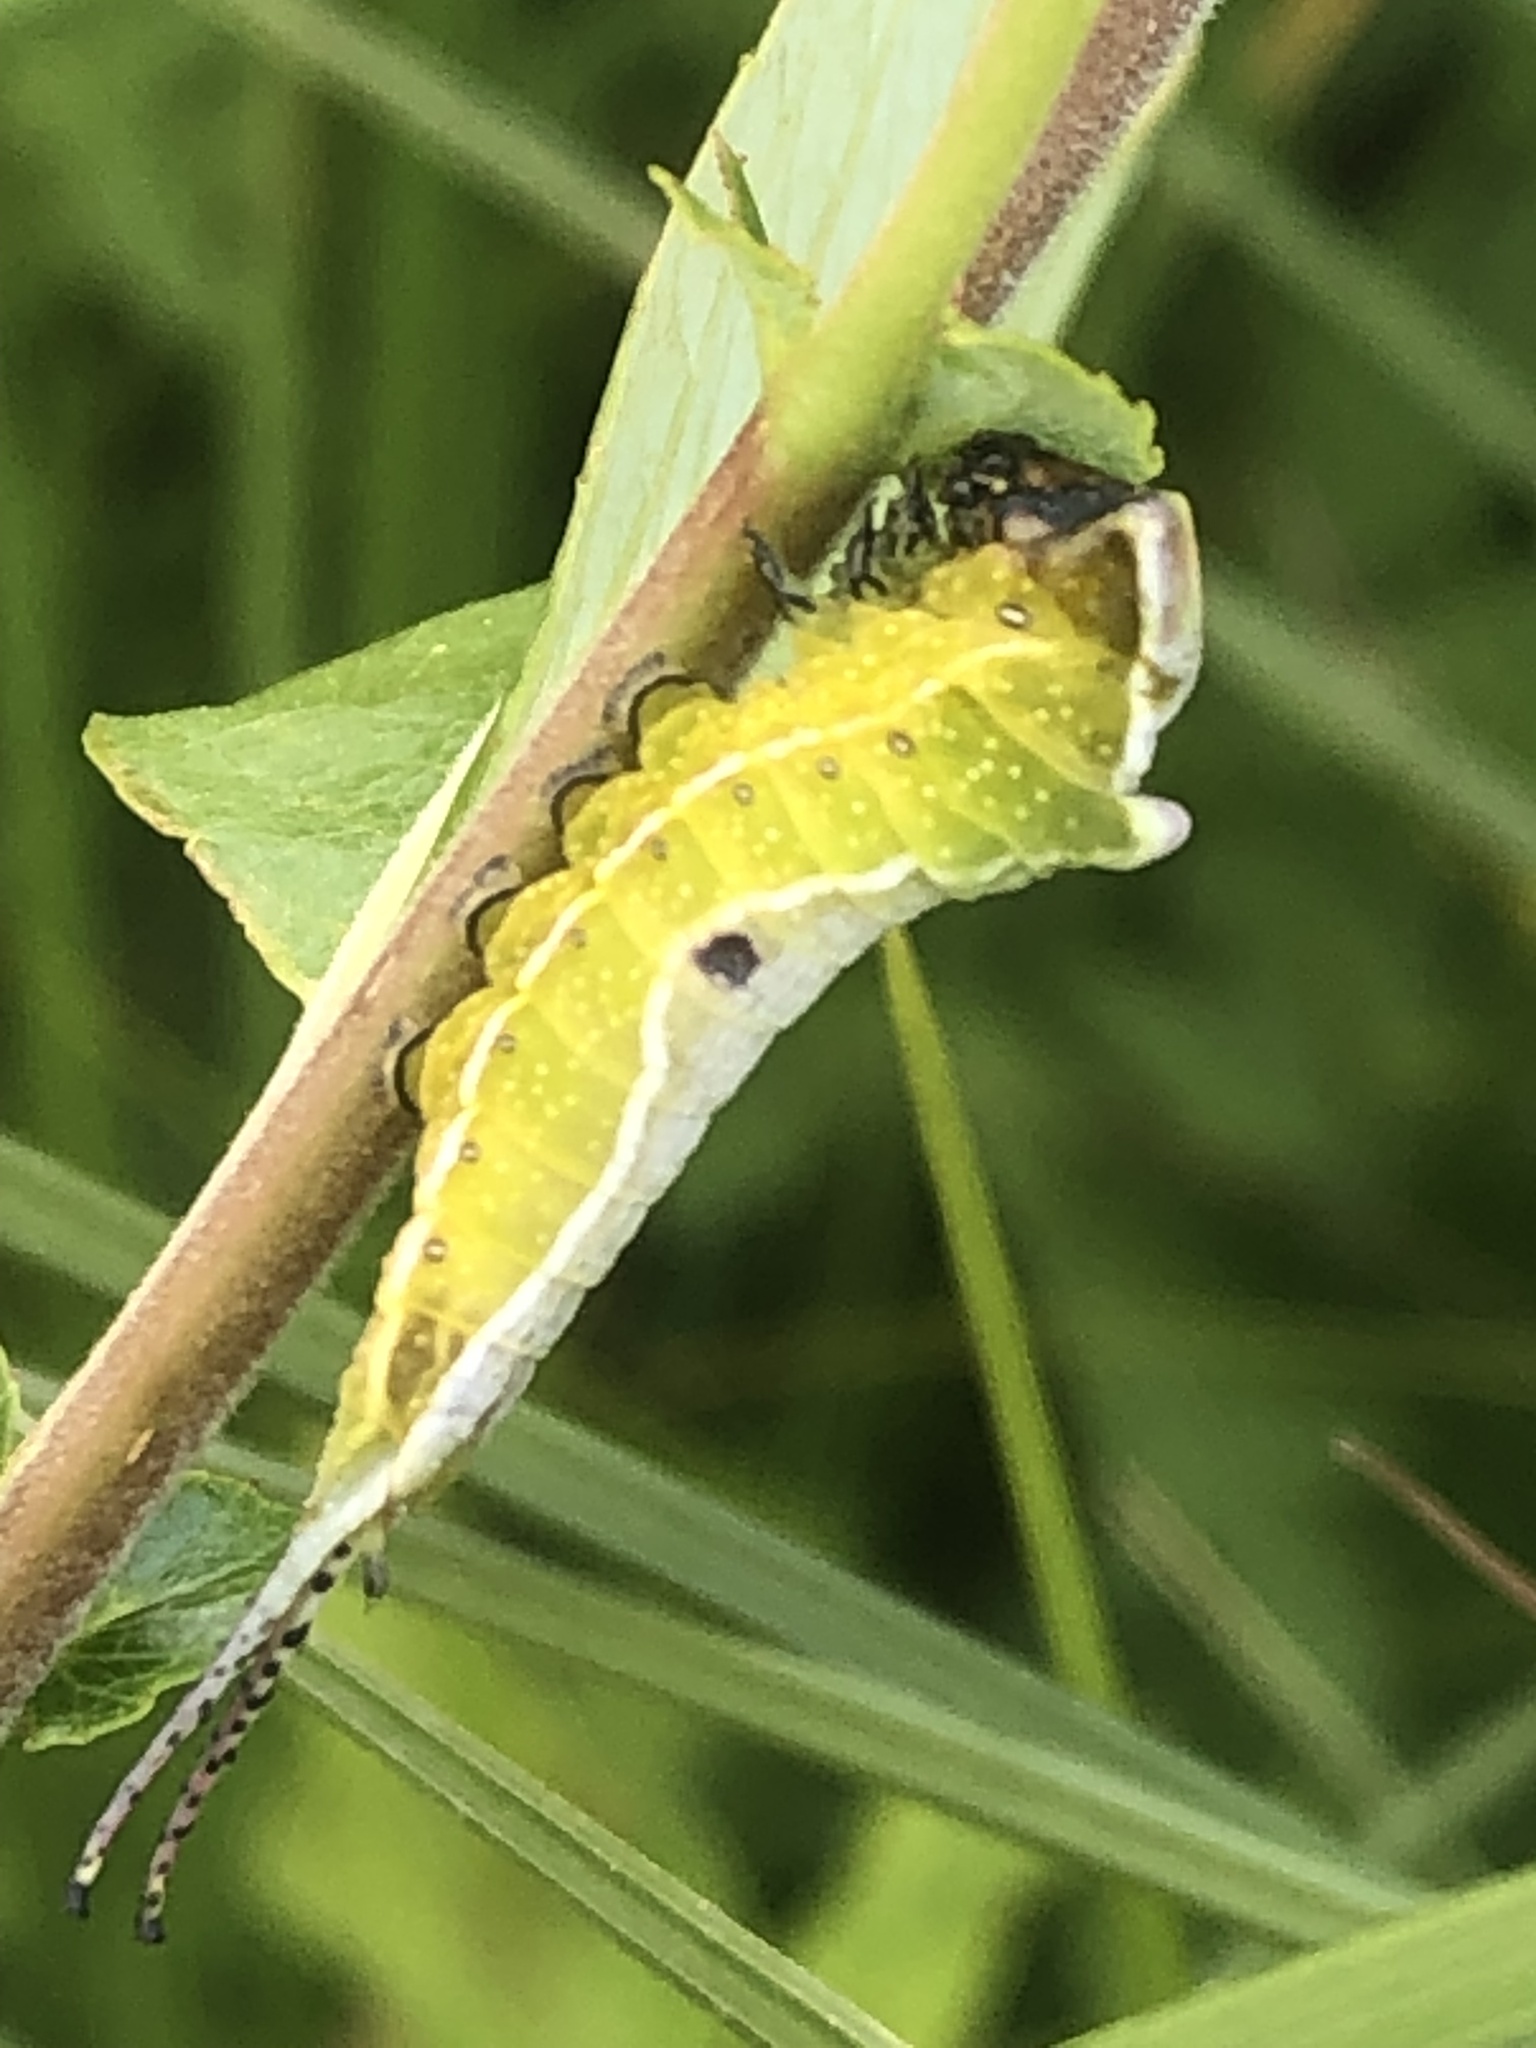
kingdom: Animalia
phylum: Arthropoda
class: Insecta
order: Lepidoptera
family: Notodontidae
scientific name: Notodontidae
